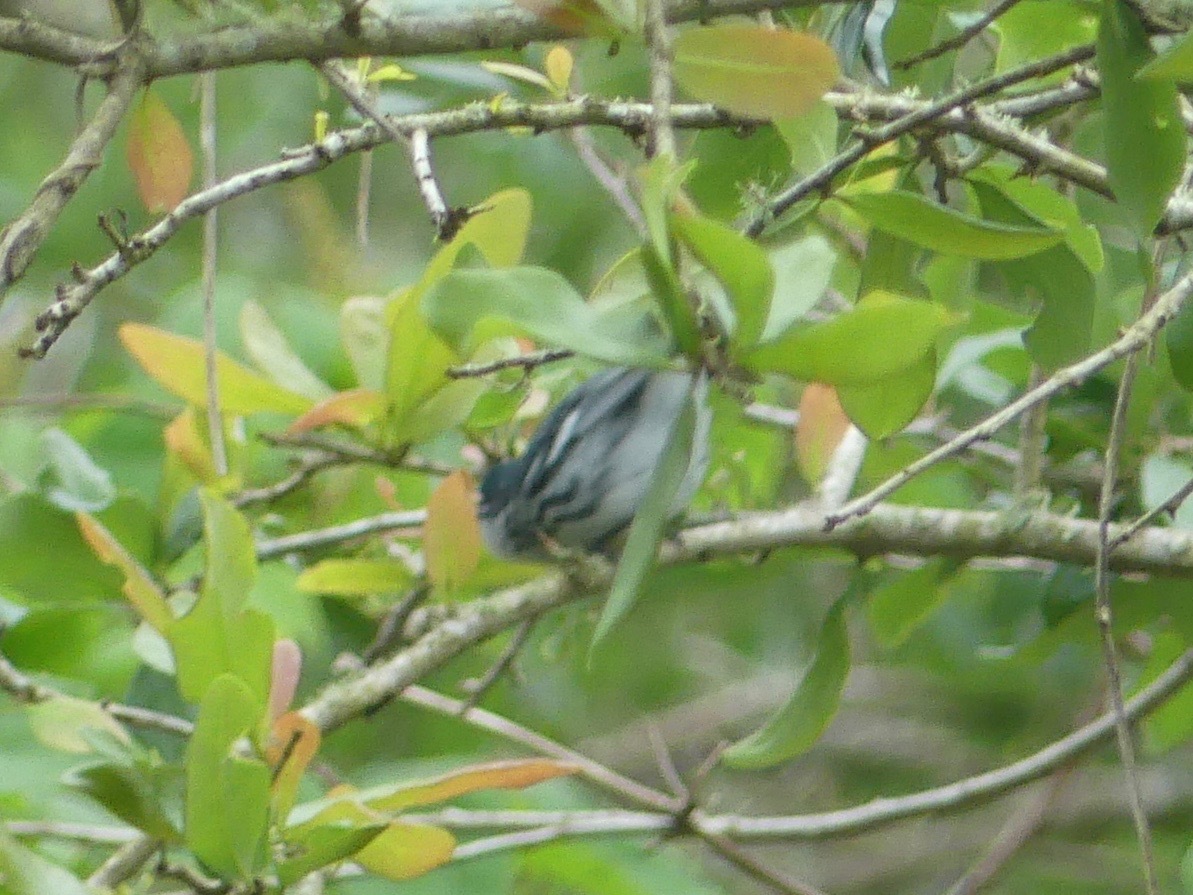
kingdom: Animalia
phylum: Chordata
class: Aves
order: Passeriformes
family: Parulidae
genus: Setophaga
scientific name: Setophaga cerulea
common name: Cerulean warbler
